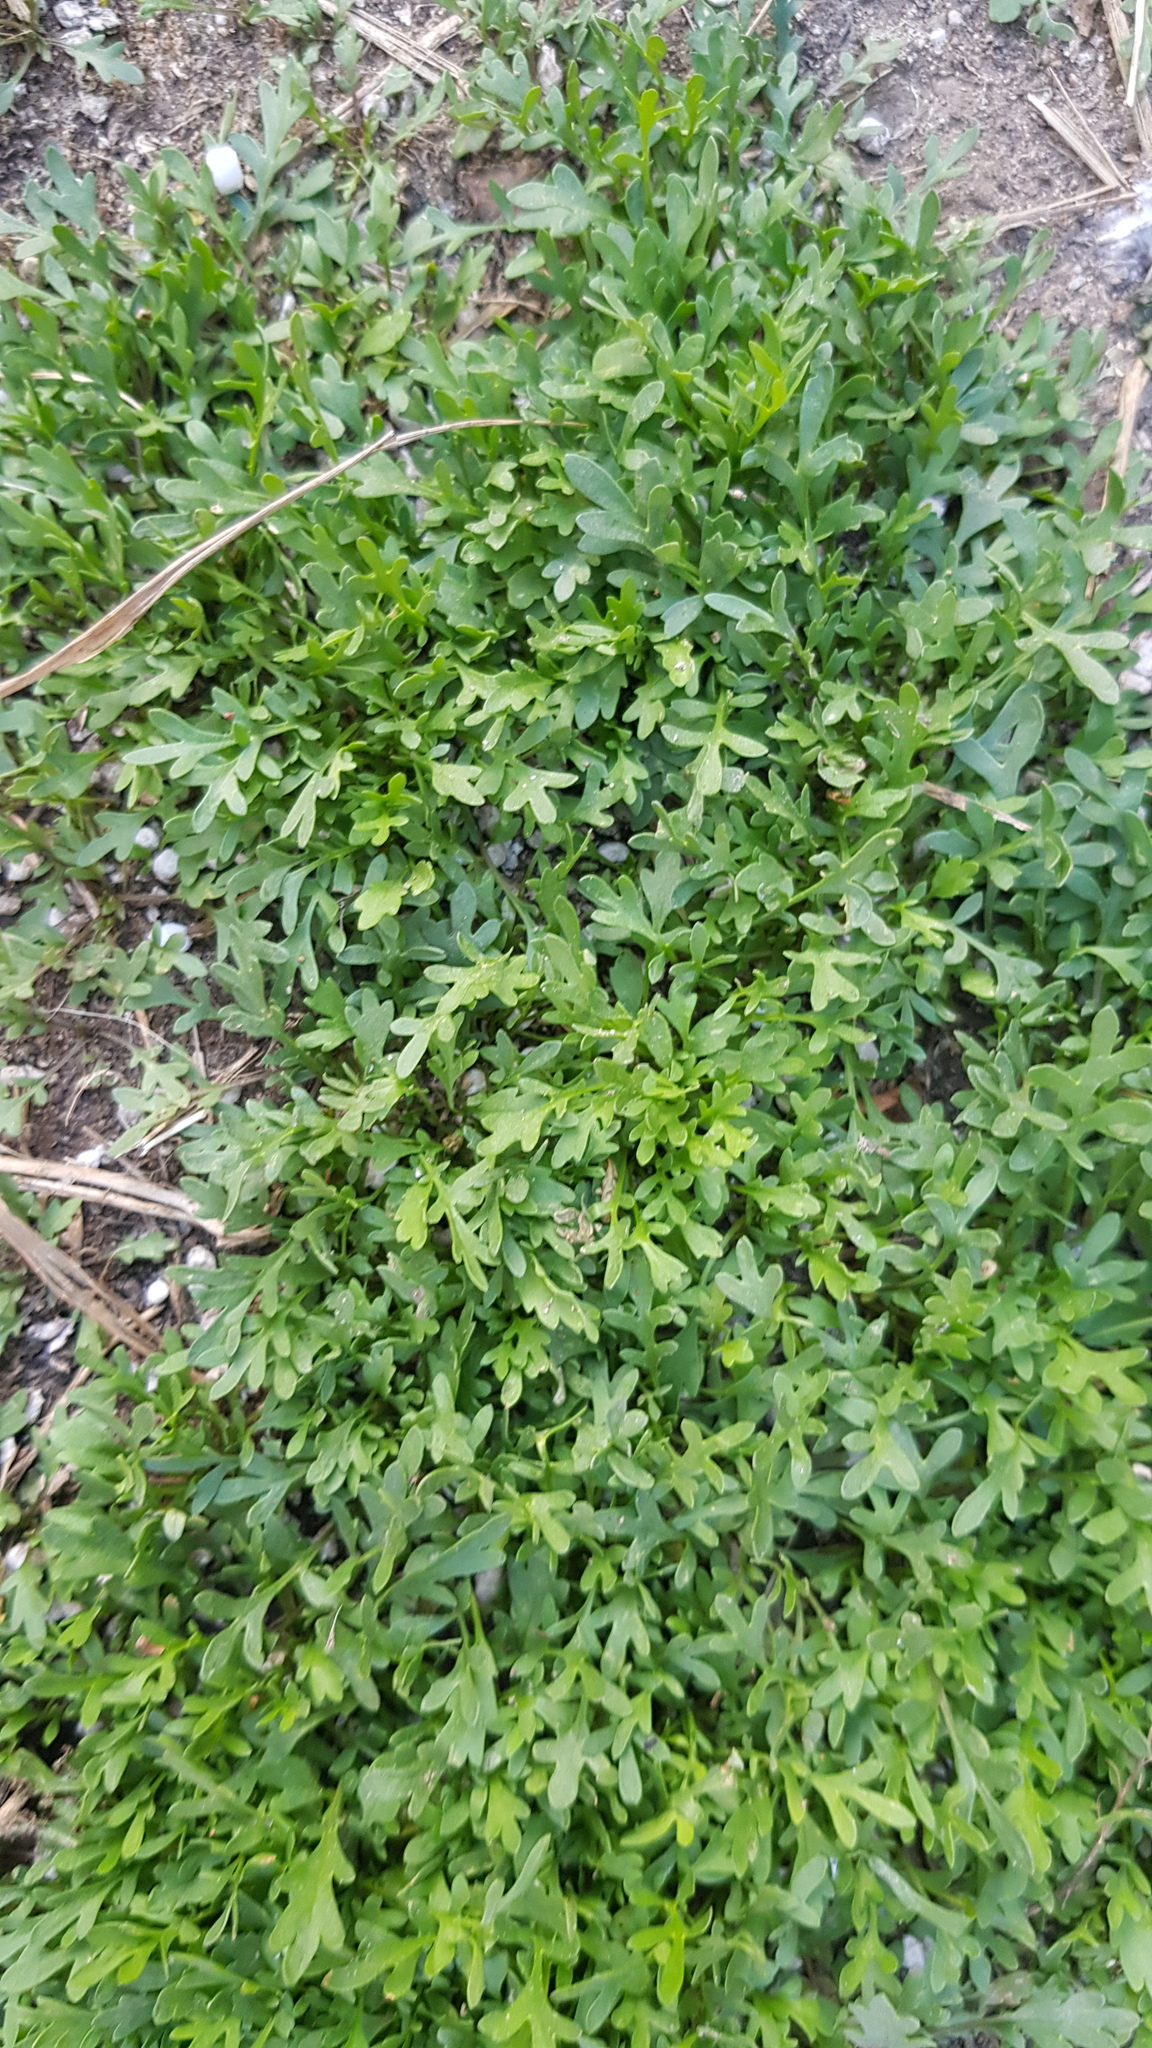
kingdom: Plantae
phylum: Tracheophyta
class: Magnoliopsida
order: Asterales
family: Asteraceae
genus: Chrysanthemum
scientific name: Chrysanthemum zawadzkii
